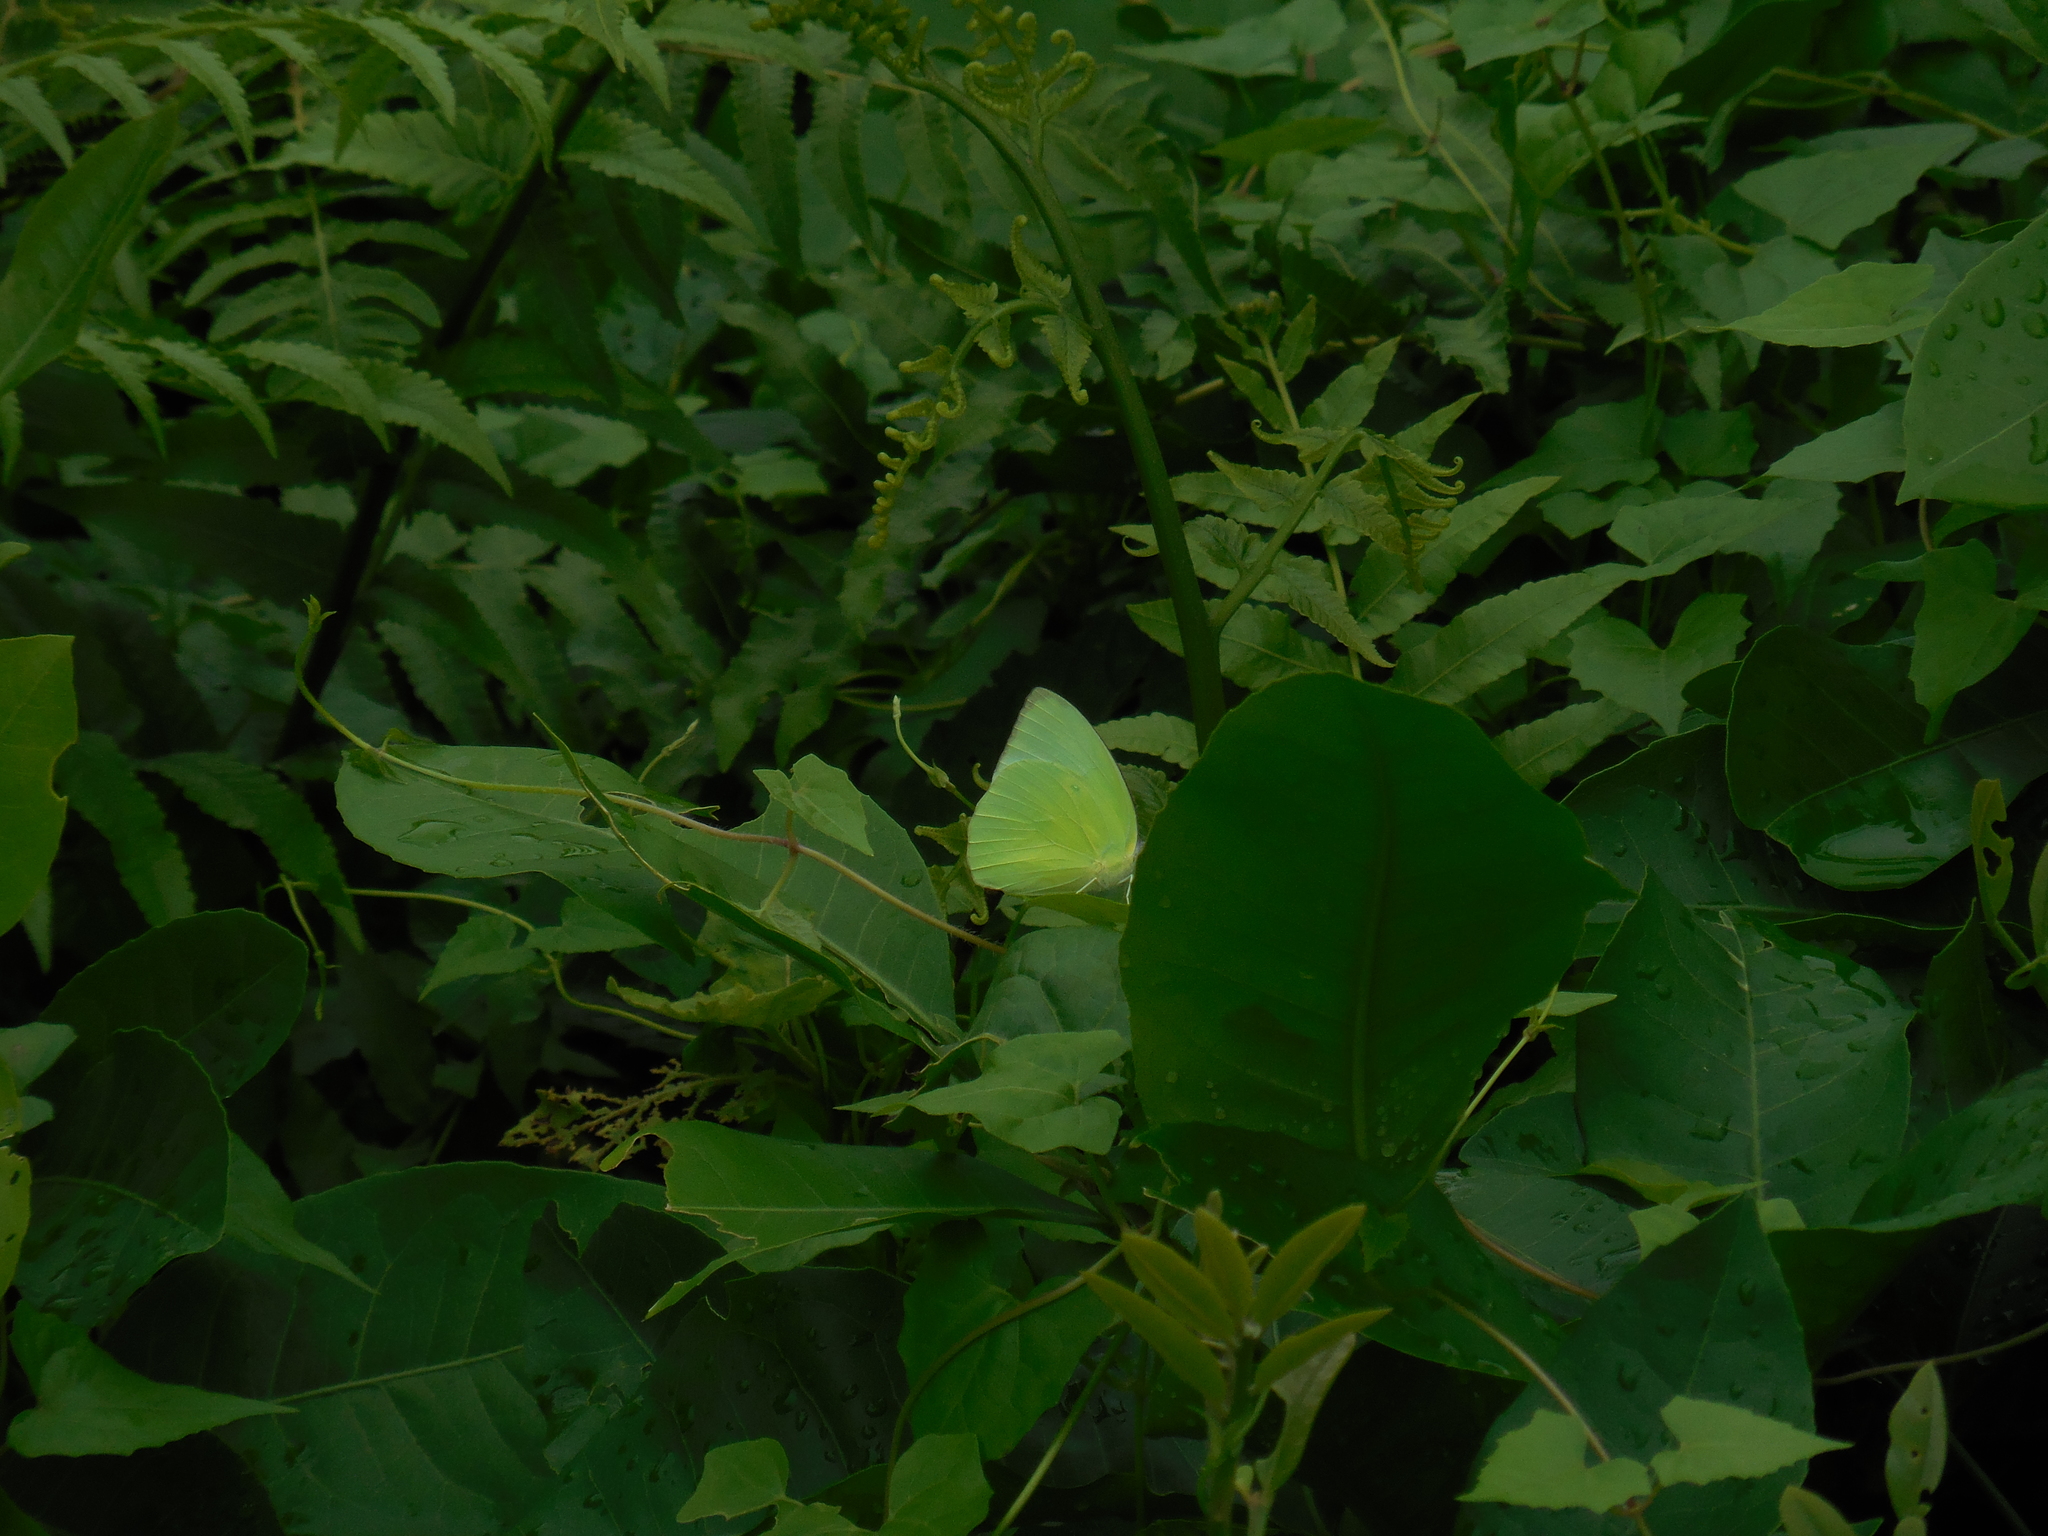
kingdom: Animalia
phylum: Arthropoda
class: Insecta
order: Lepidoptera
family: Pieridae
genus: Catopsilia
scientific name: Catopsilia pomona
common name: Common emigrant
